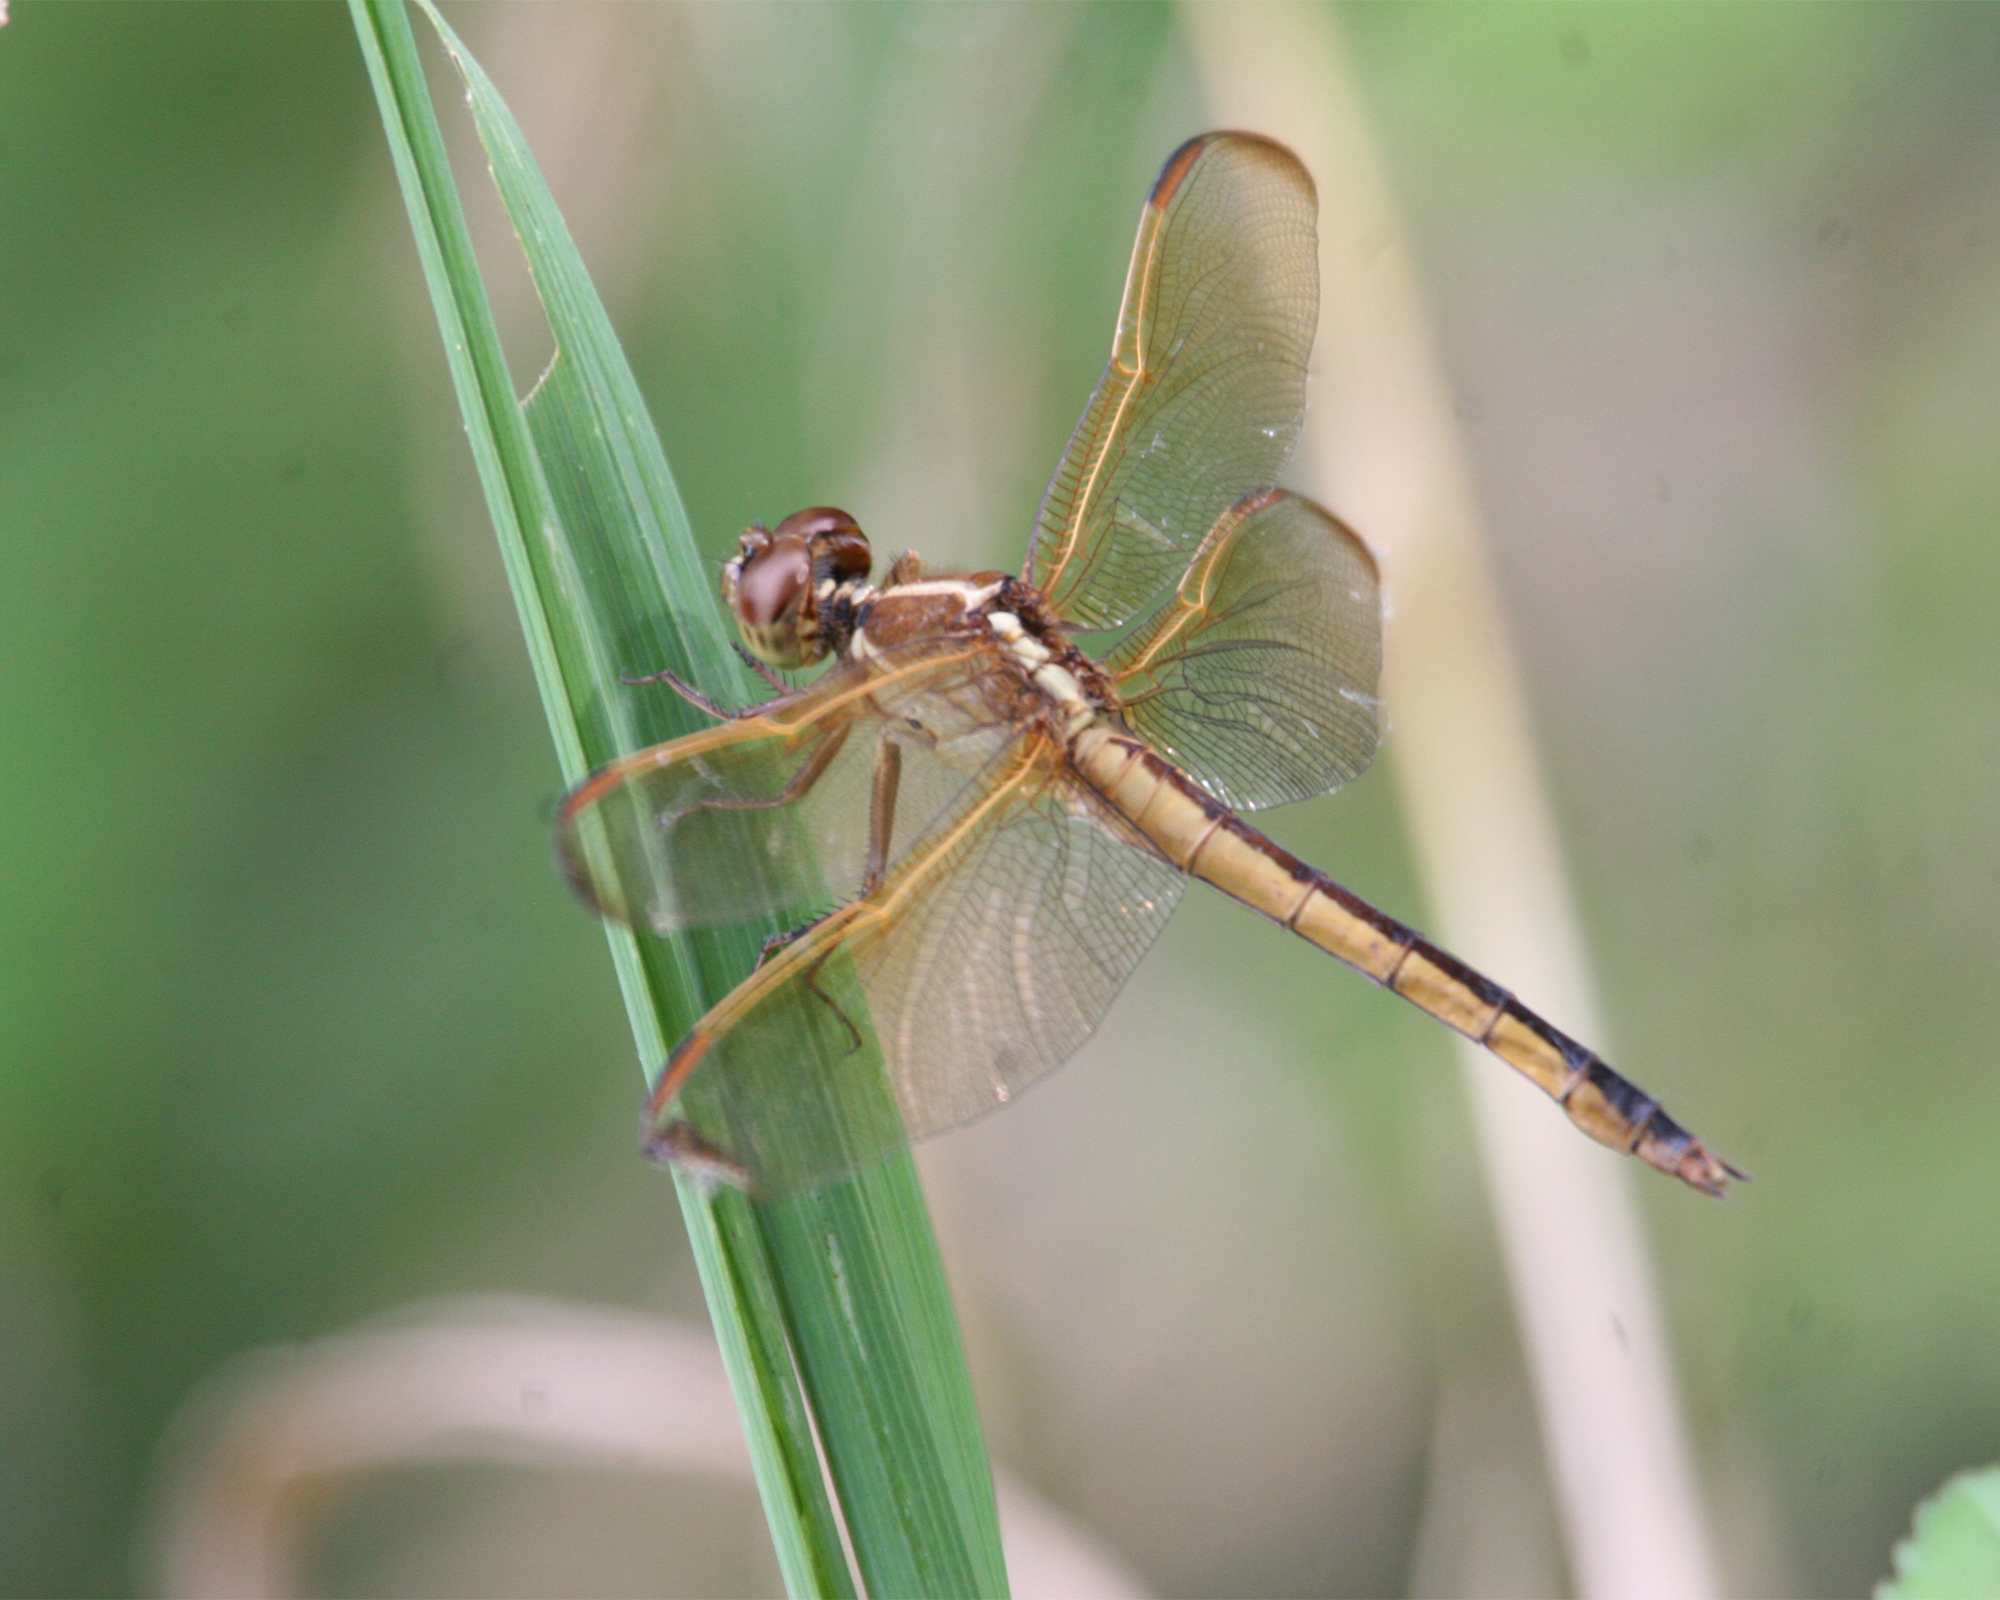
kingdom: Animalia
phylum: Arthropoda
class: Insecta
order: Odonata
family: Libellulidae
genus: Libellula
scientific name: Libellula needhami
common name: Needham's skimmer
